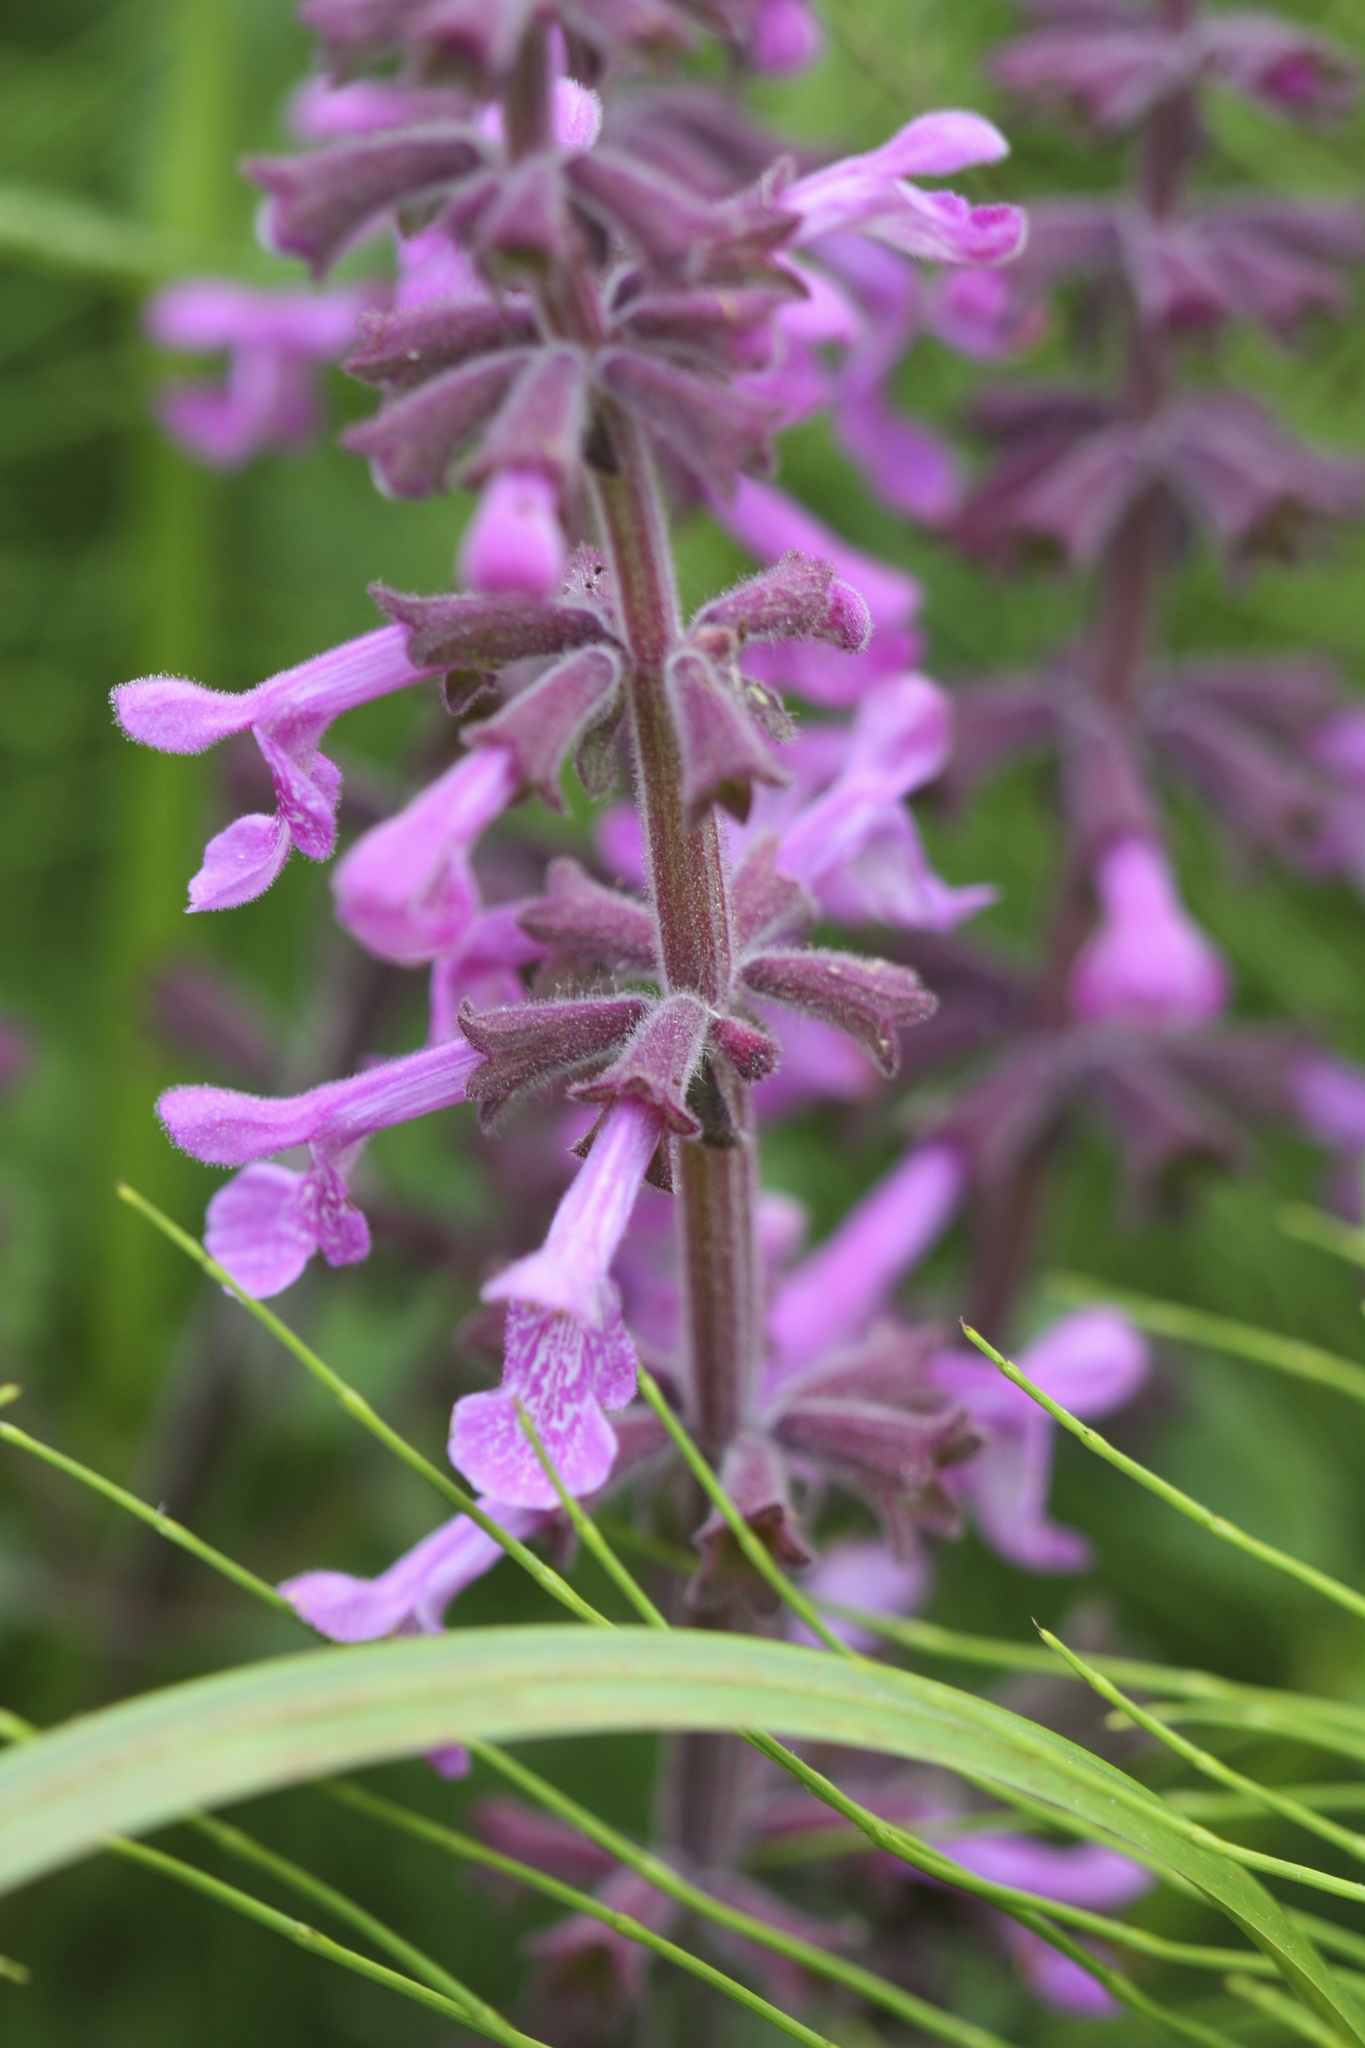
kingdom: Plantae
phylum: Tracheophyta
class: Magnoliopsida
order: Lamiales
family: Lamiaceae
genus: Stachys
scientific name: Stachys chamissonis
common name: Coastal hedge-nettle
